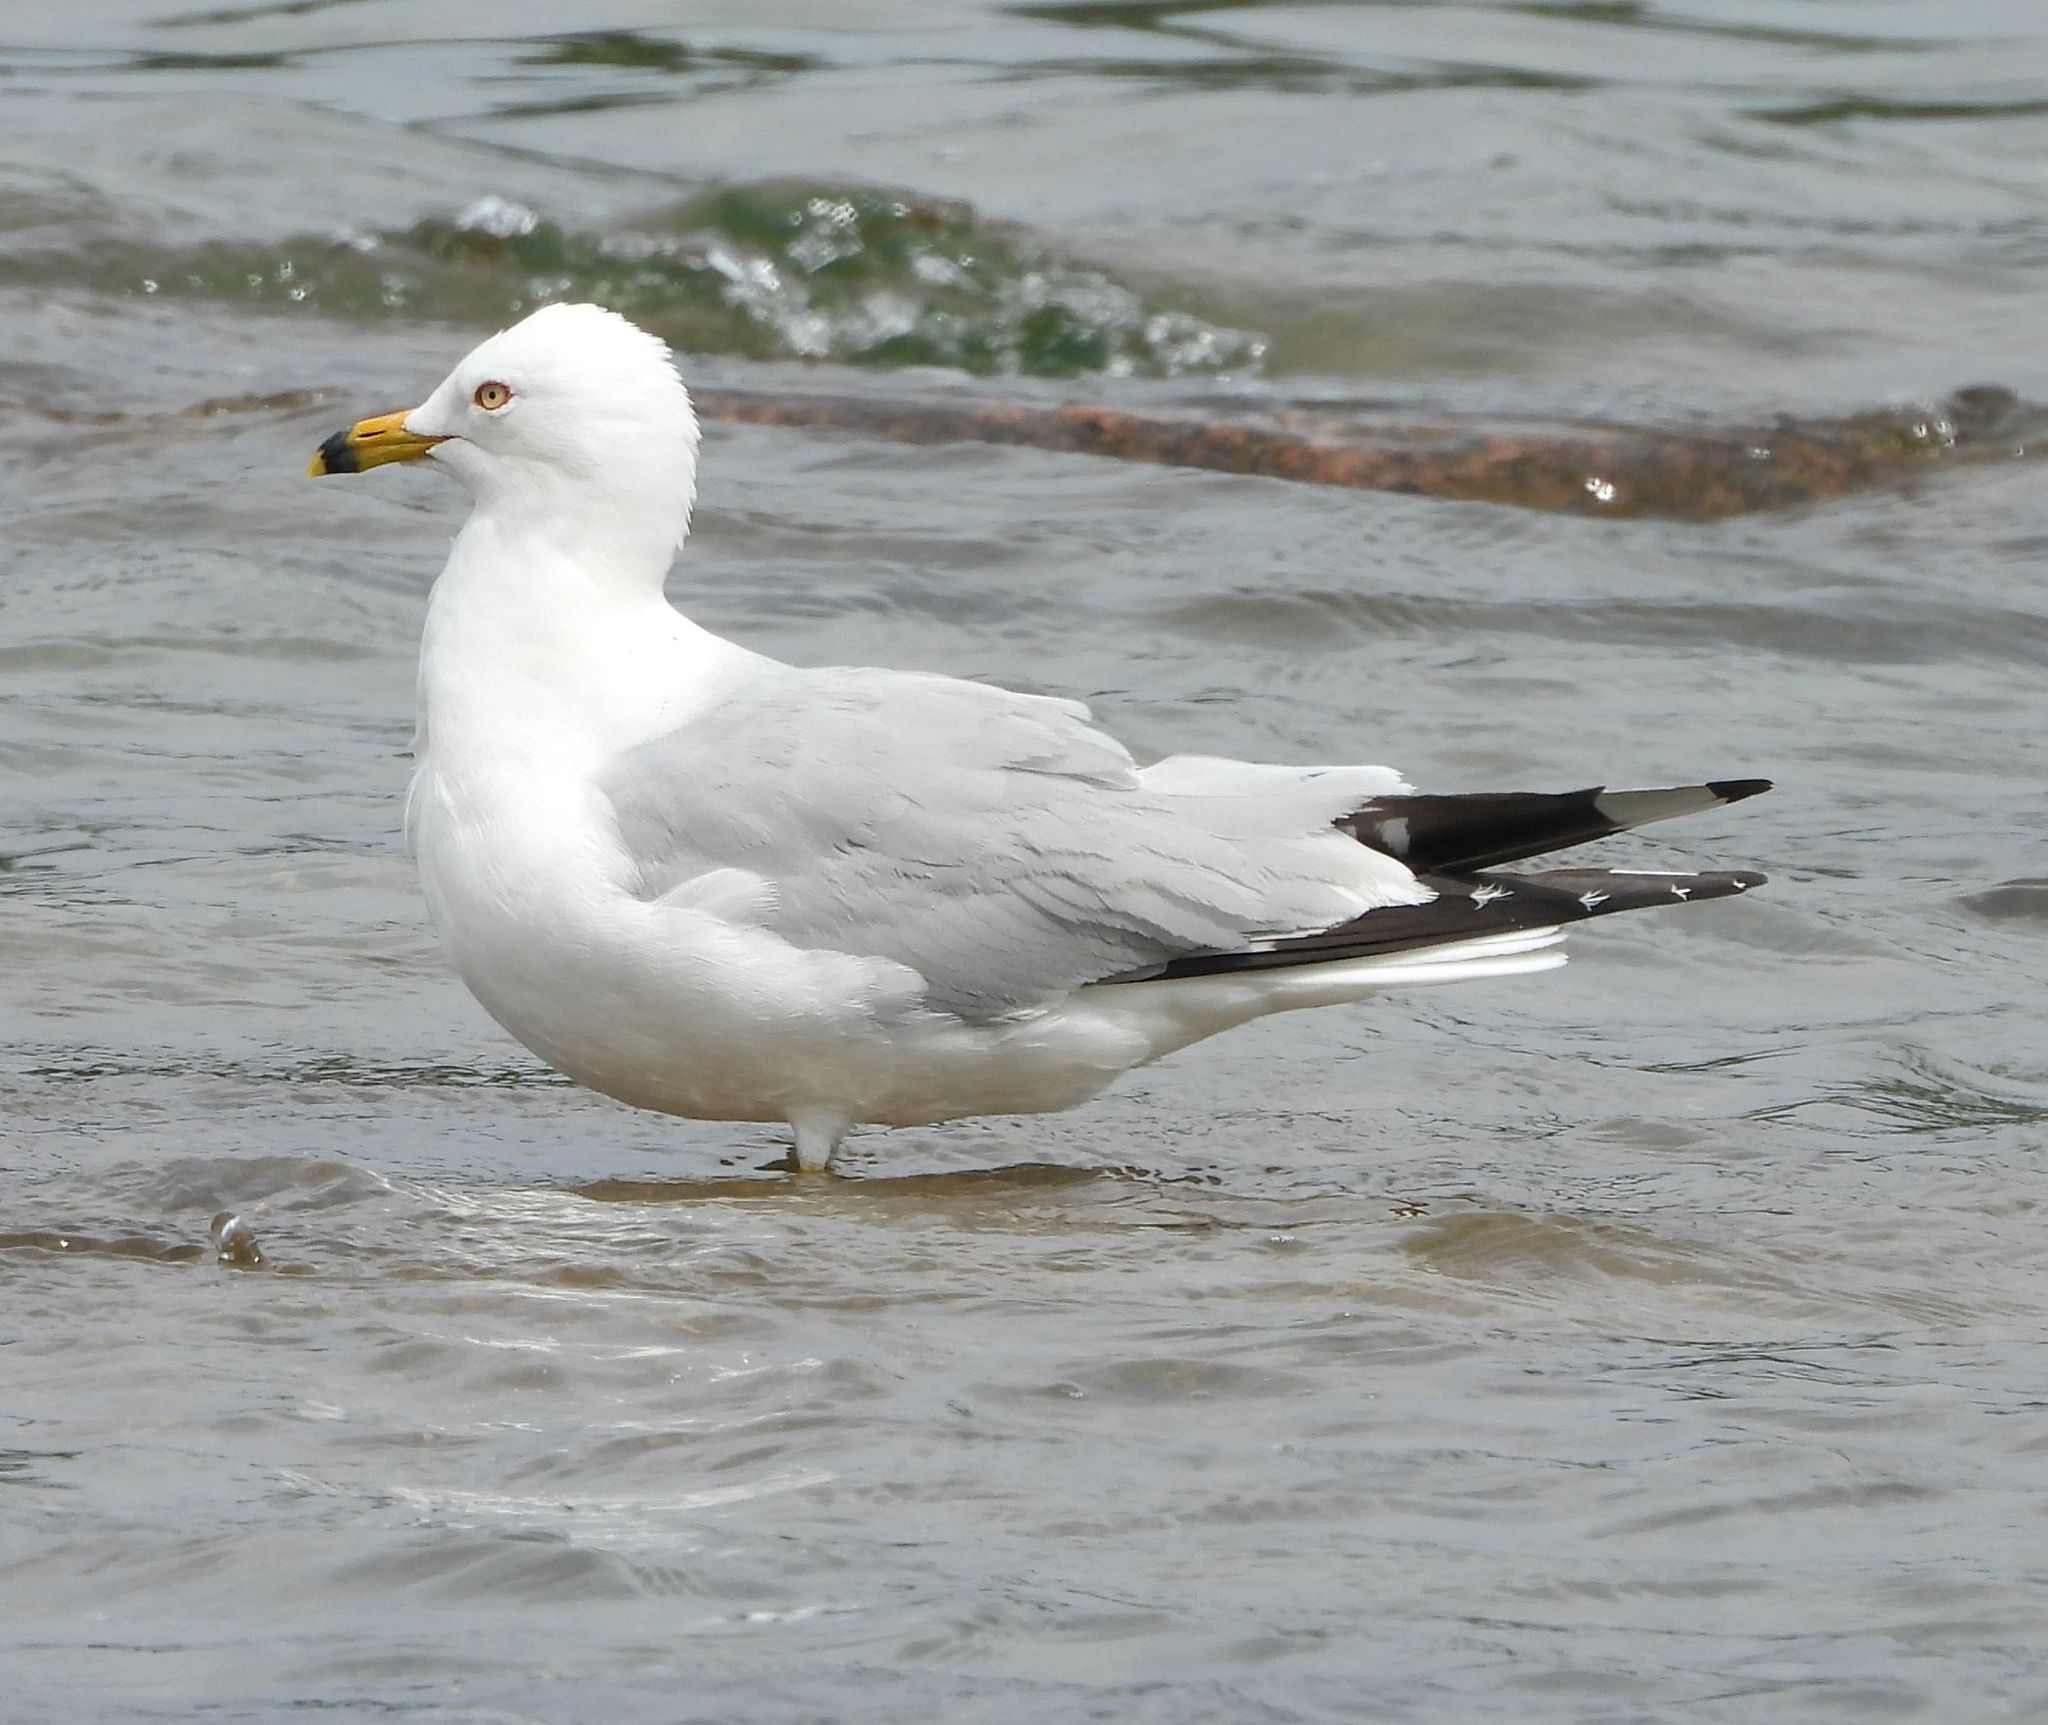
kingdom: Animalia
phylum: Chordata
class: Aves
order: Charadriiformes
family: Laridae
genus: Larus
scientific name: Larus delawarensis
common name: Ring-billed gull
